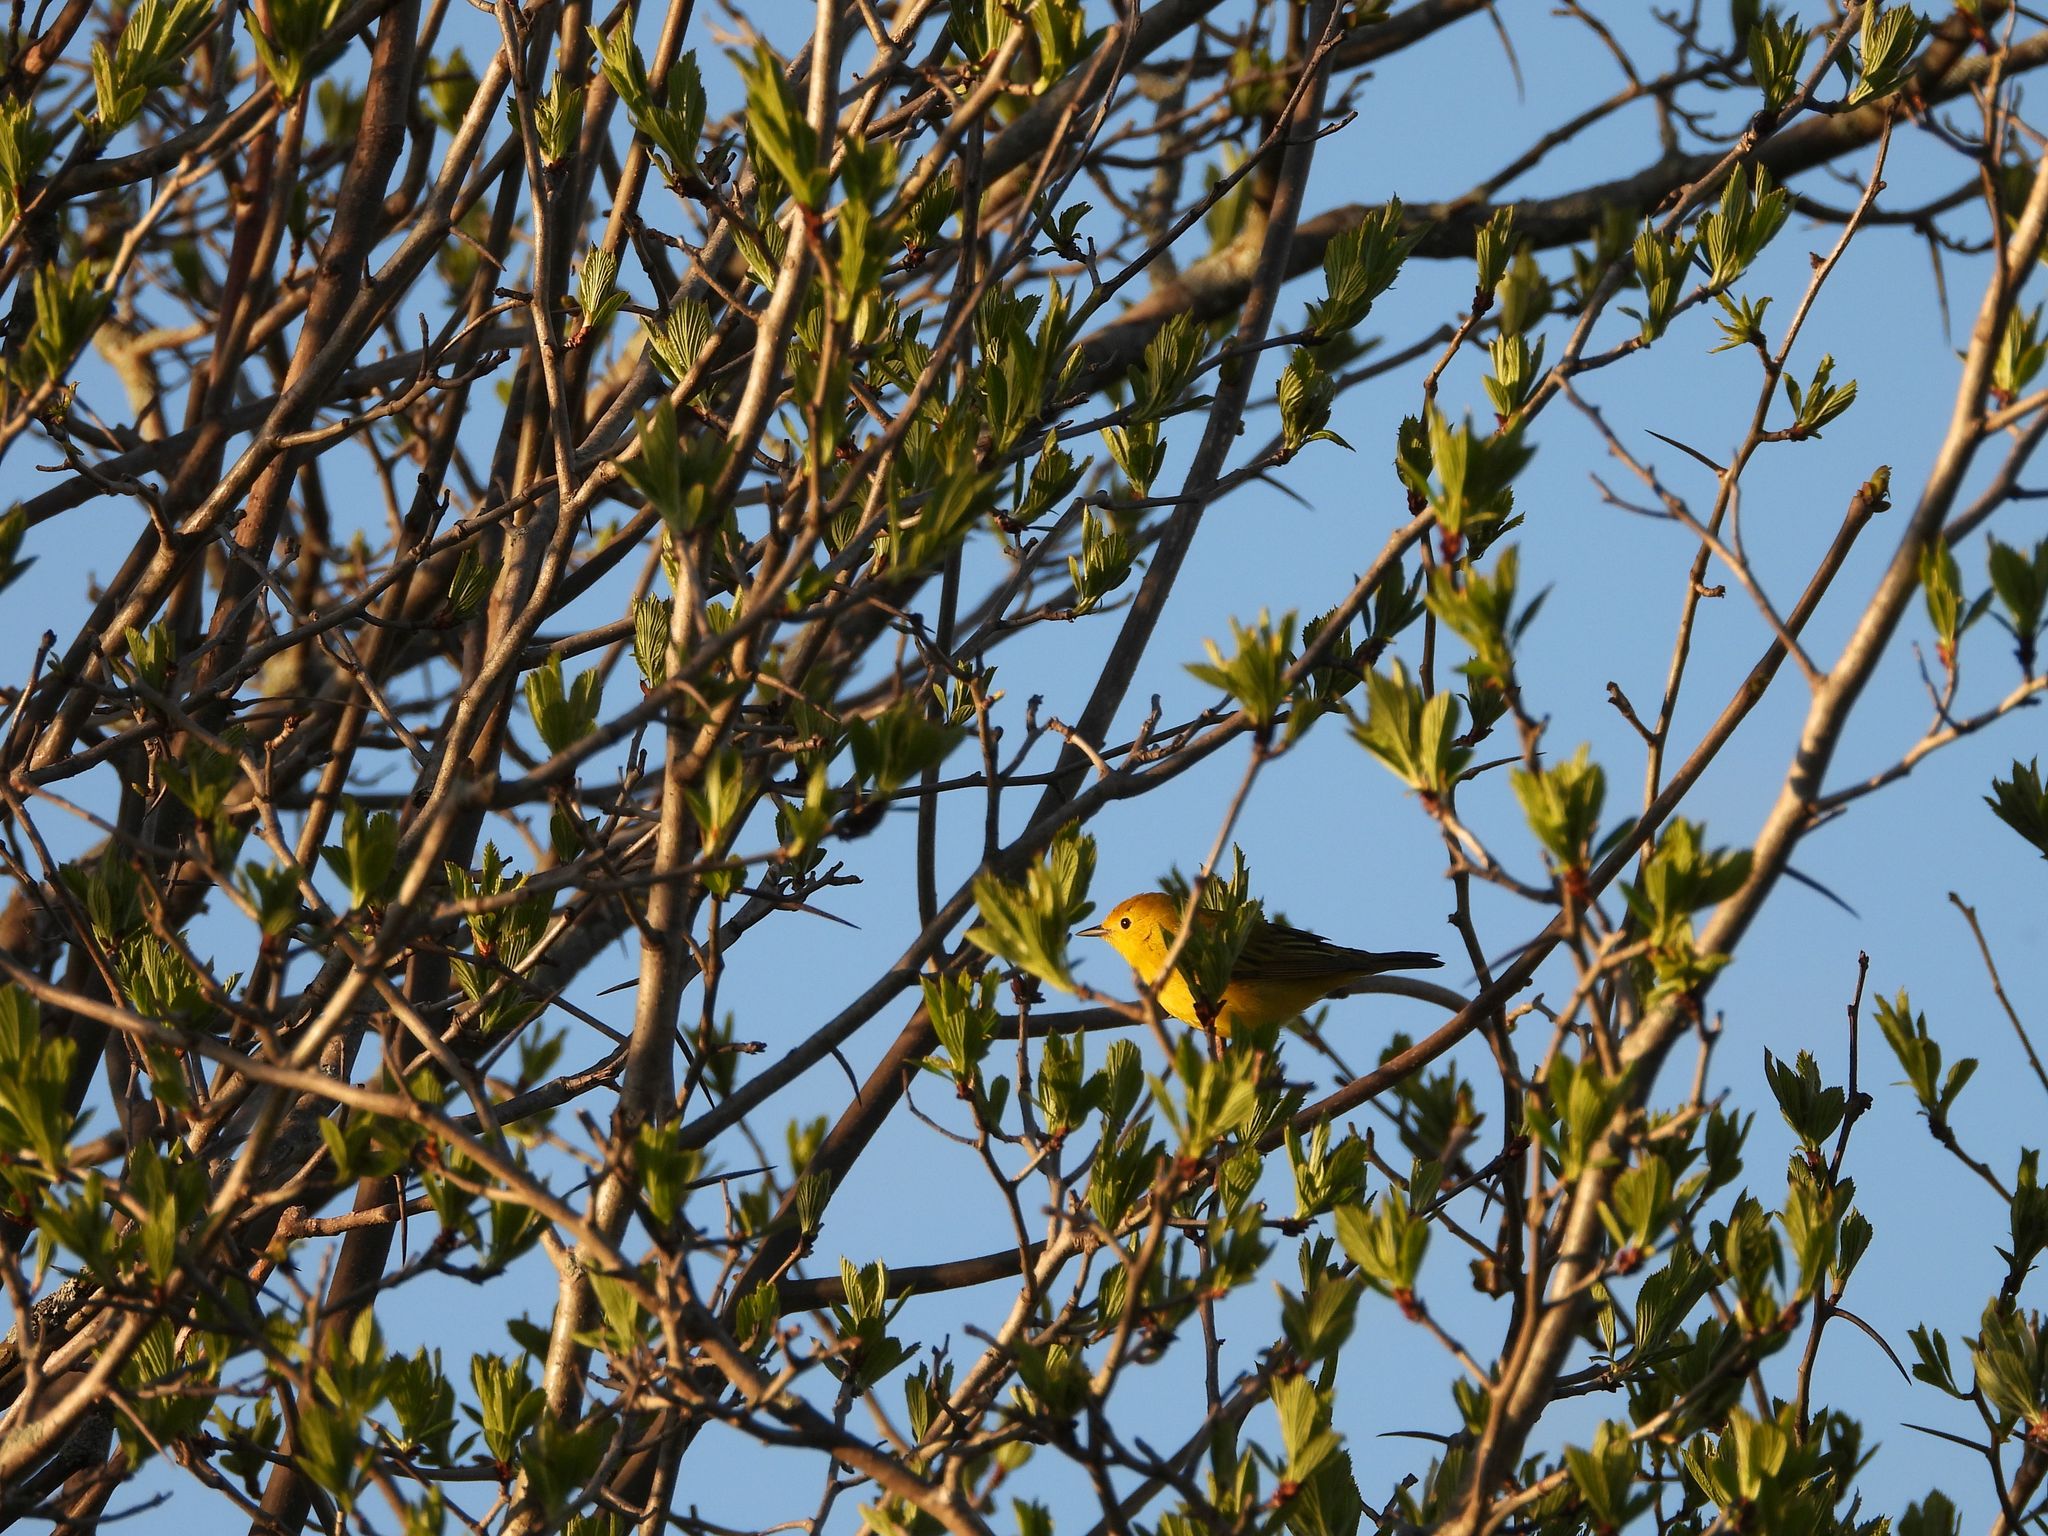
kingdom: Animalia
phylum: Chordata
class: Aves
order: Passeriformes
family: Parulidae
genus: Setophaga
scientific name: Setophaga petechia
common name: Yellow warbler
